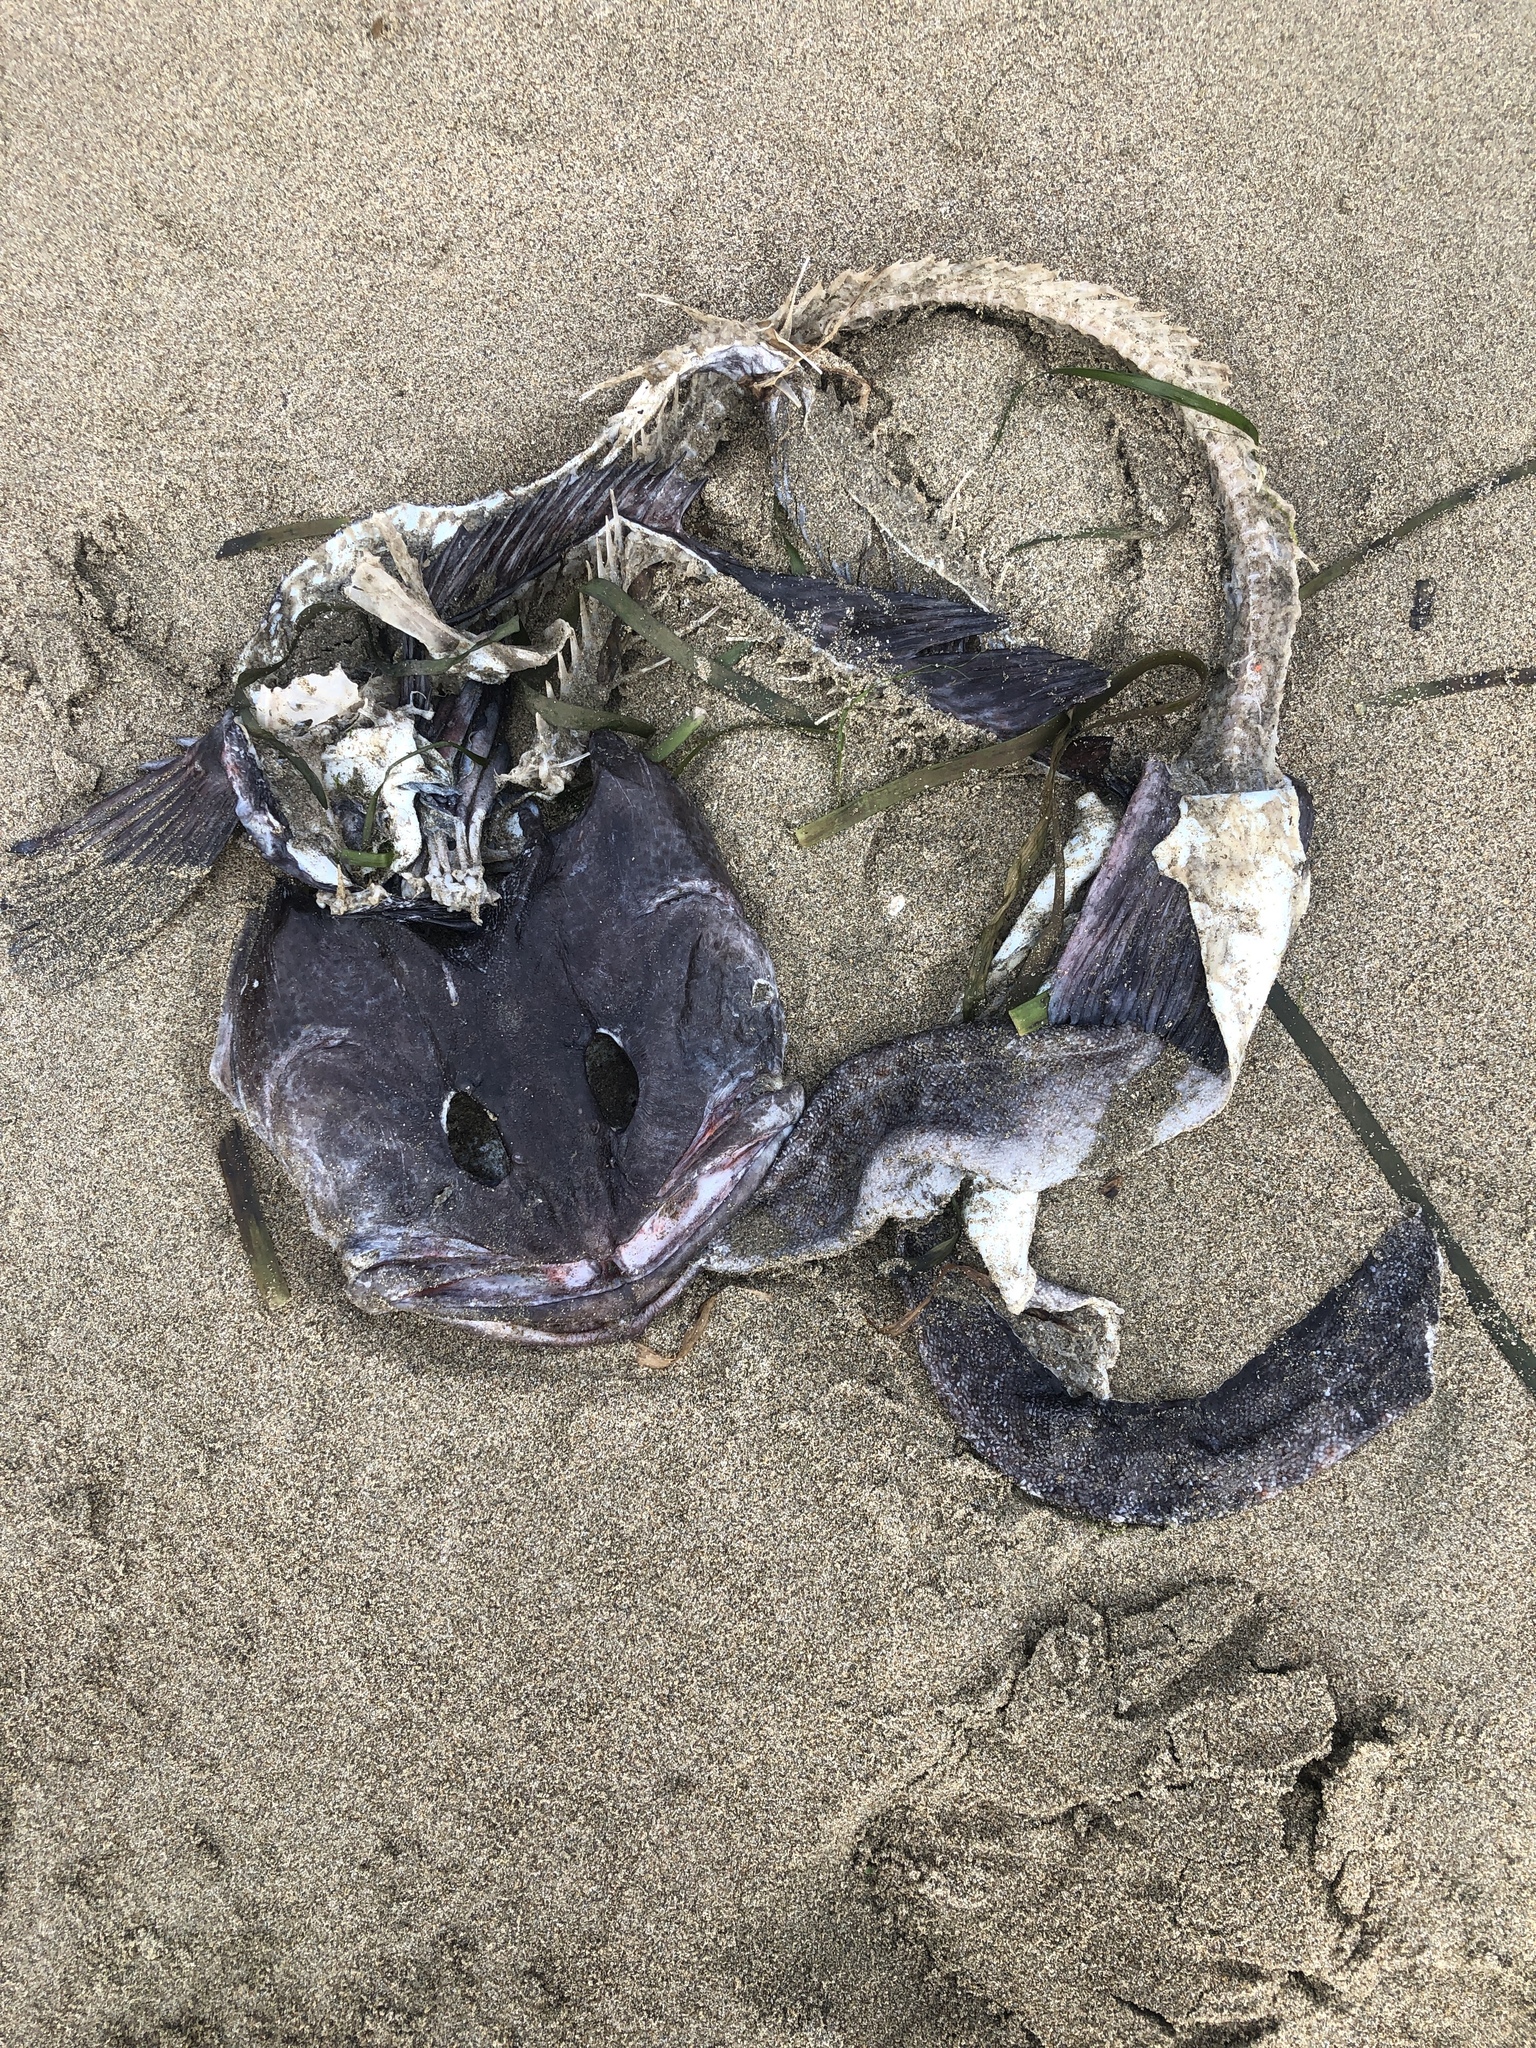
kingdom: Animalia
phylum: Chordata
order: Scorpaeniformes
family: Hexagrammidae
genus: Ophiodon
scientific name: Ophiodon elongatus
